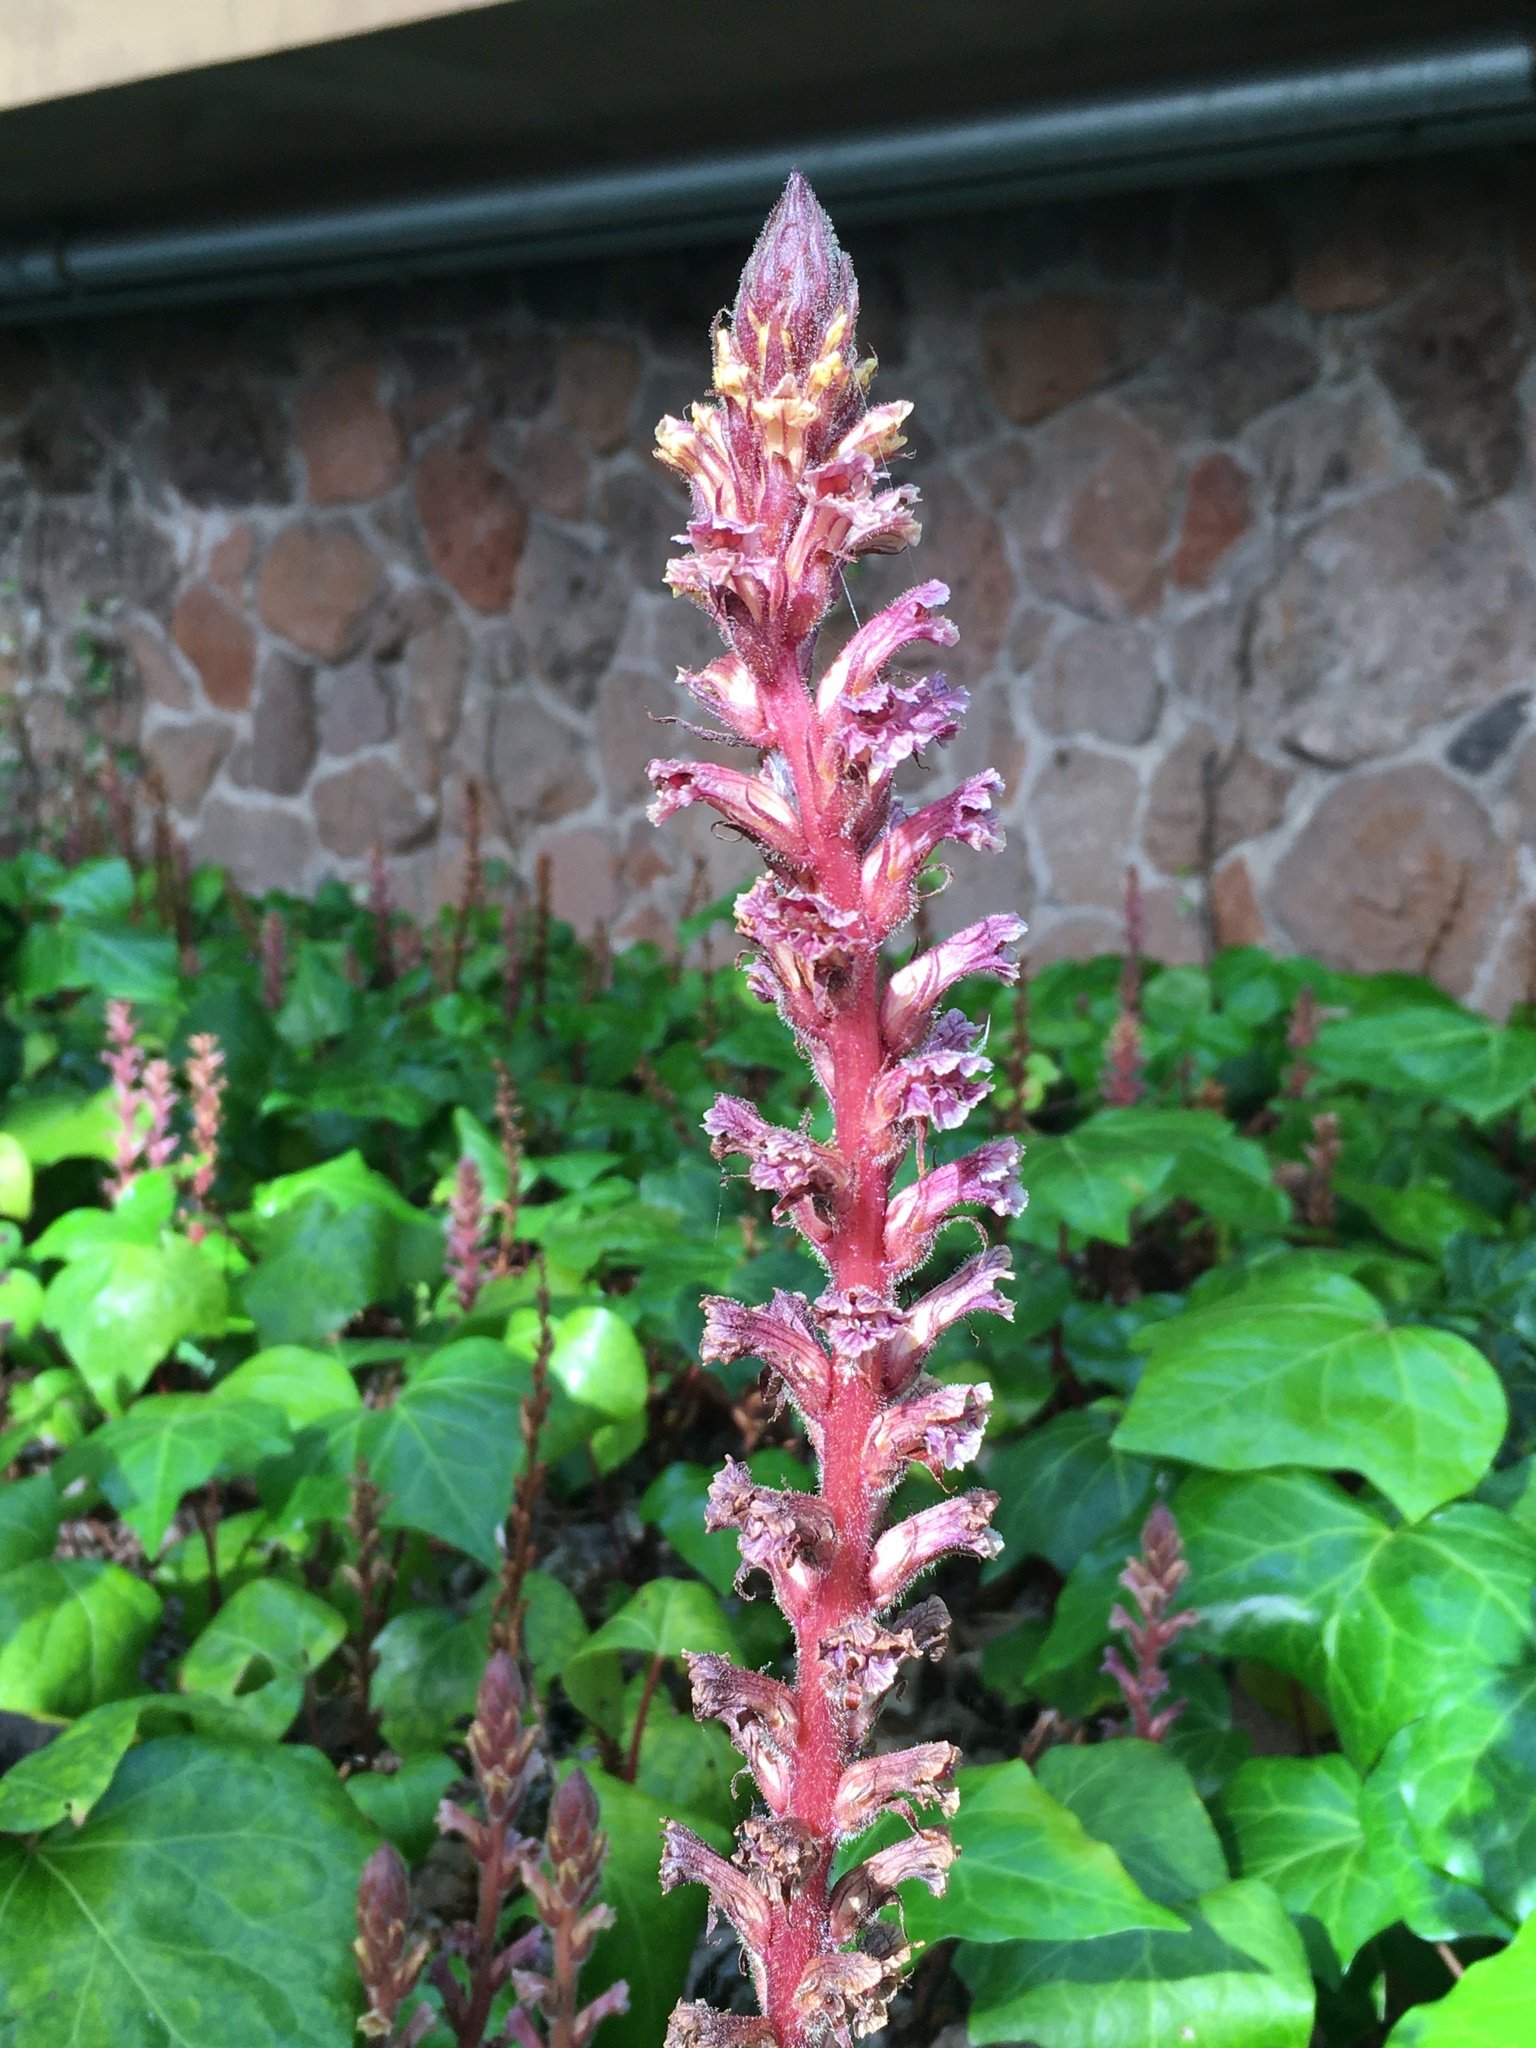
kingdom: Plantae
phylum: Tracheophyta
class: Magnoliopsida
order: Lamiales
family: Orobanchaceae
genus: Orobanche
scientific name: Orobanche hederae
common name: Ivy broomrape
